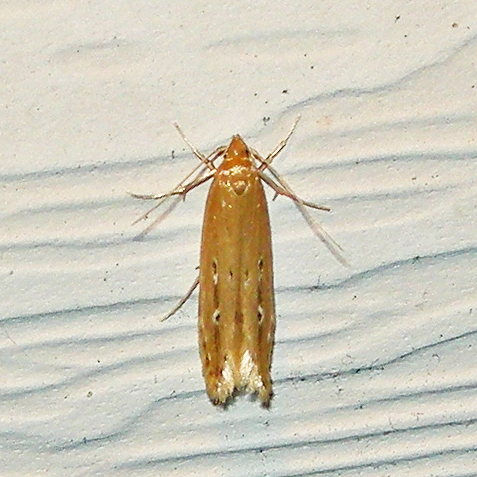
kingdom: Animalia
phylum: Arthropoda
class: Insecta
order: Lepidoptera
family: Cosmopterigidae
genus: Limnaecia
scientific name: Limnaecia phragmitella
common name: Bulrush cosmet
